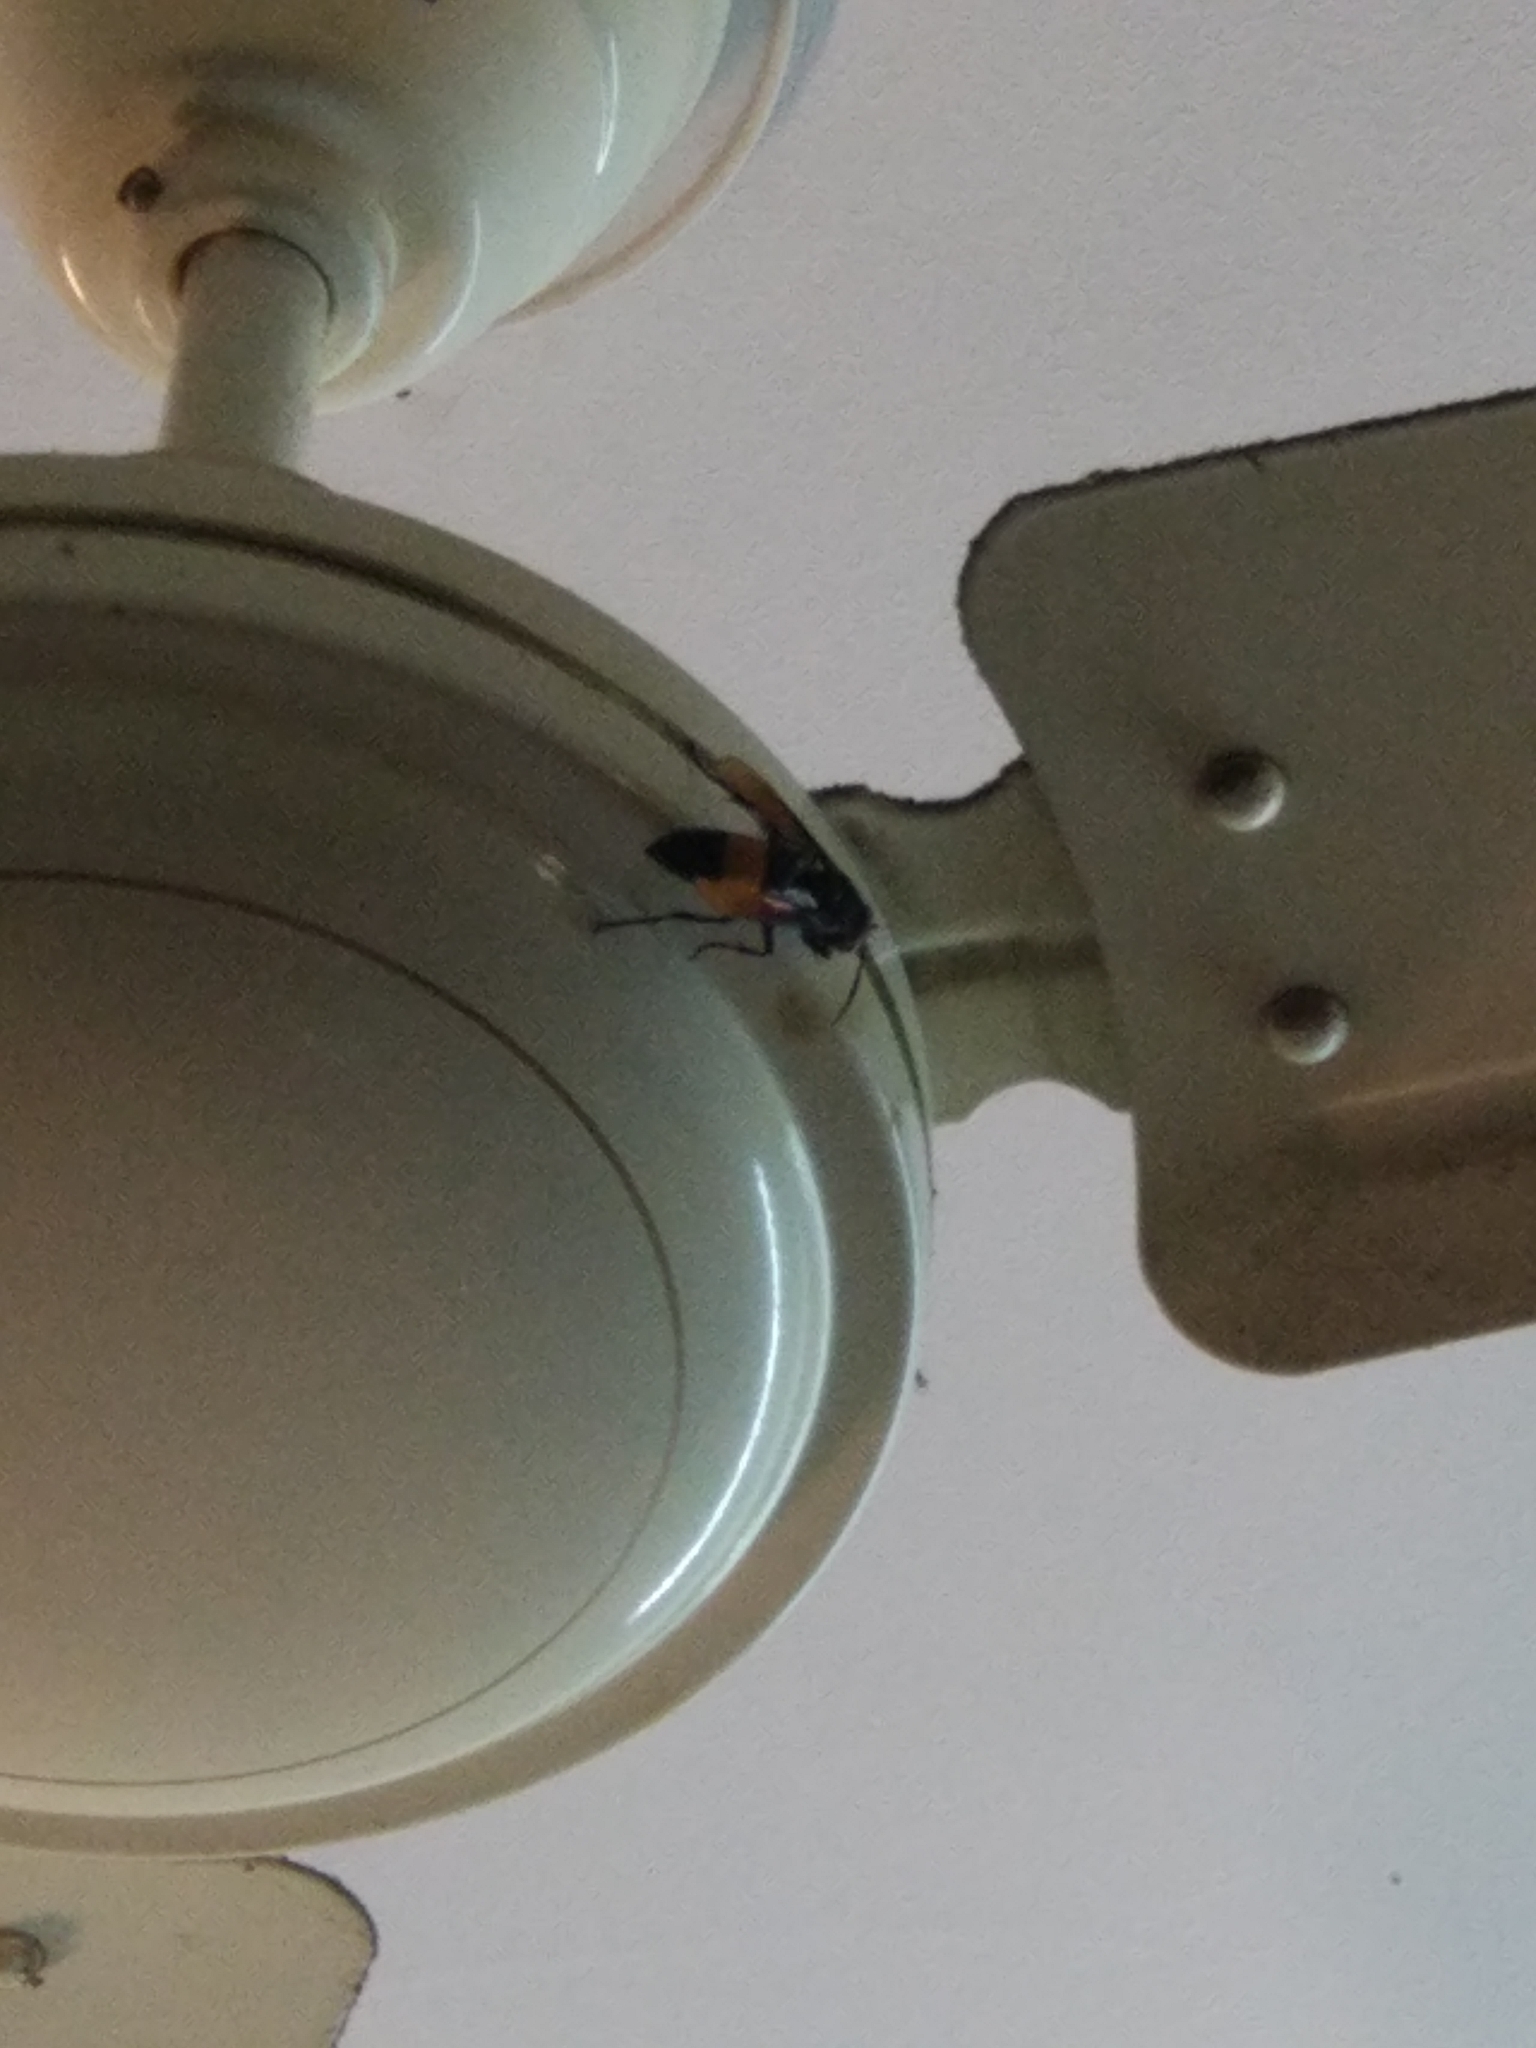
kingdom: Animalia
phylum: Arthropoda
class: Insecta
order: Hymenoptera
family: Vespidae
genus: Vespa
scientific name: Vespa tropica
